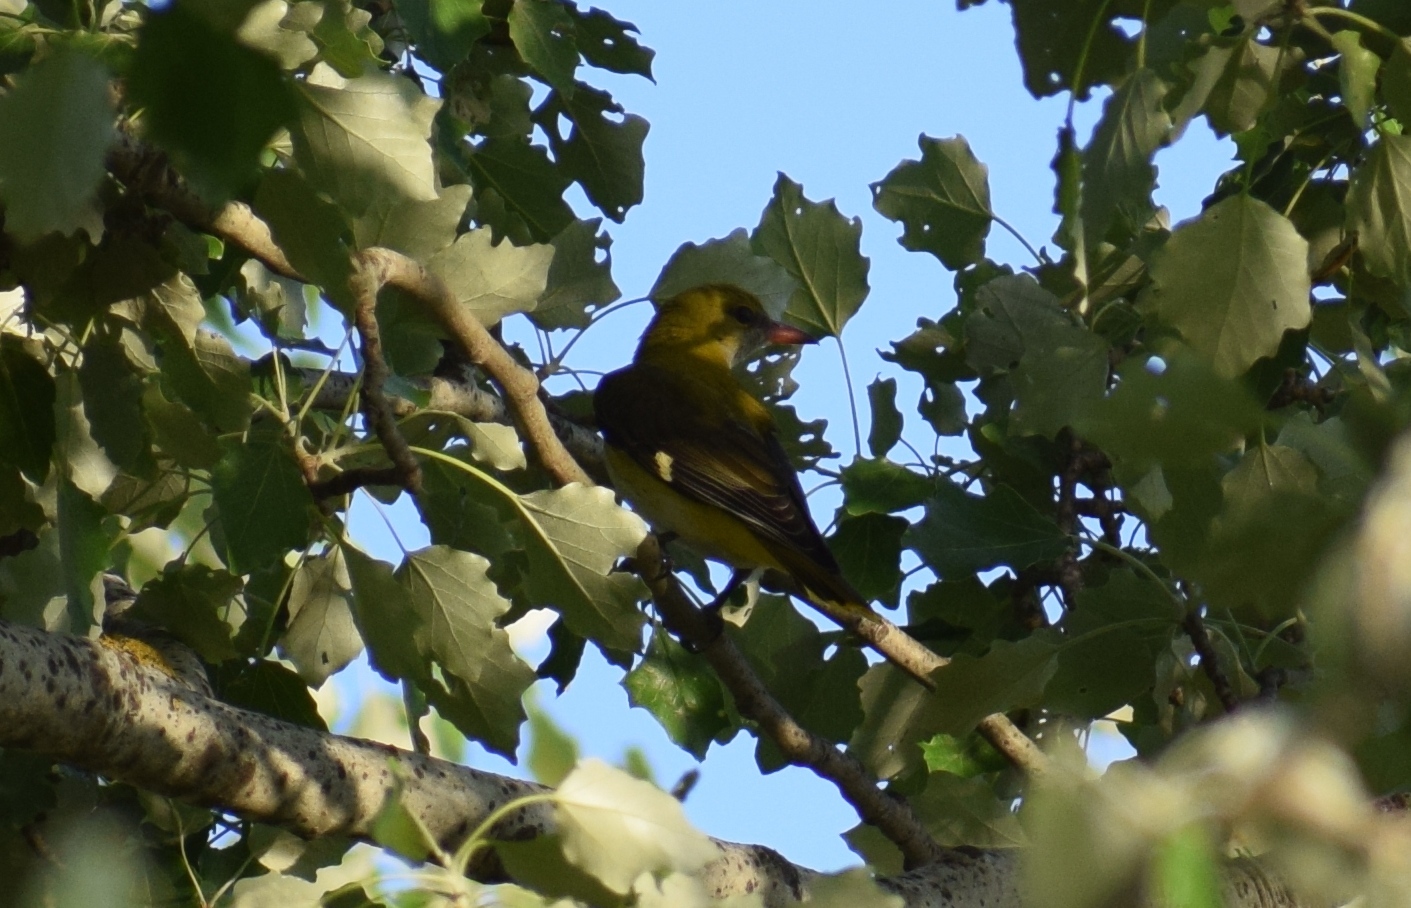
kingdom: Animalia
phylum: Chordata
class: Aves
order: Passeriformes
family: Oriolidae
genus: Oriolus
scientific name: Oriolus oriolus
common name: Eurasian golden oriole
